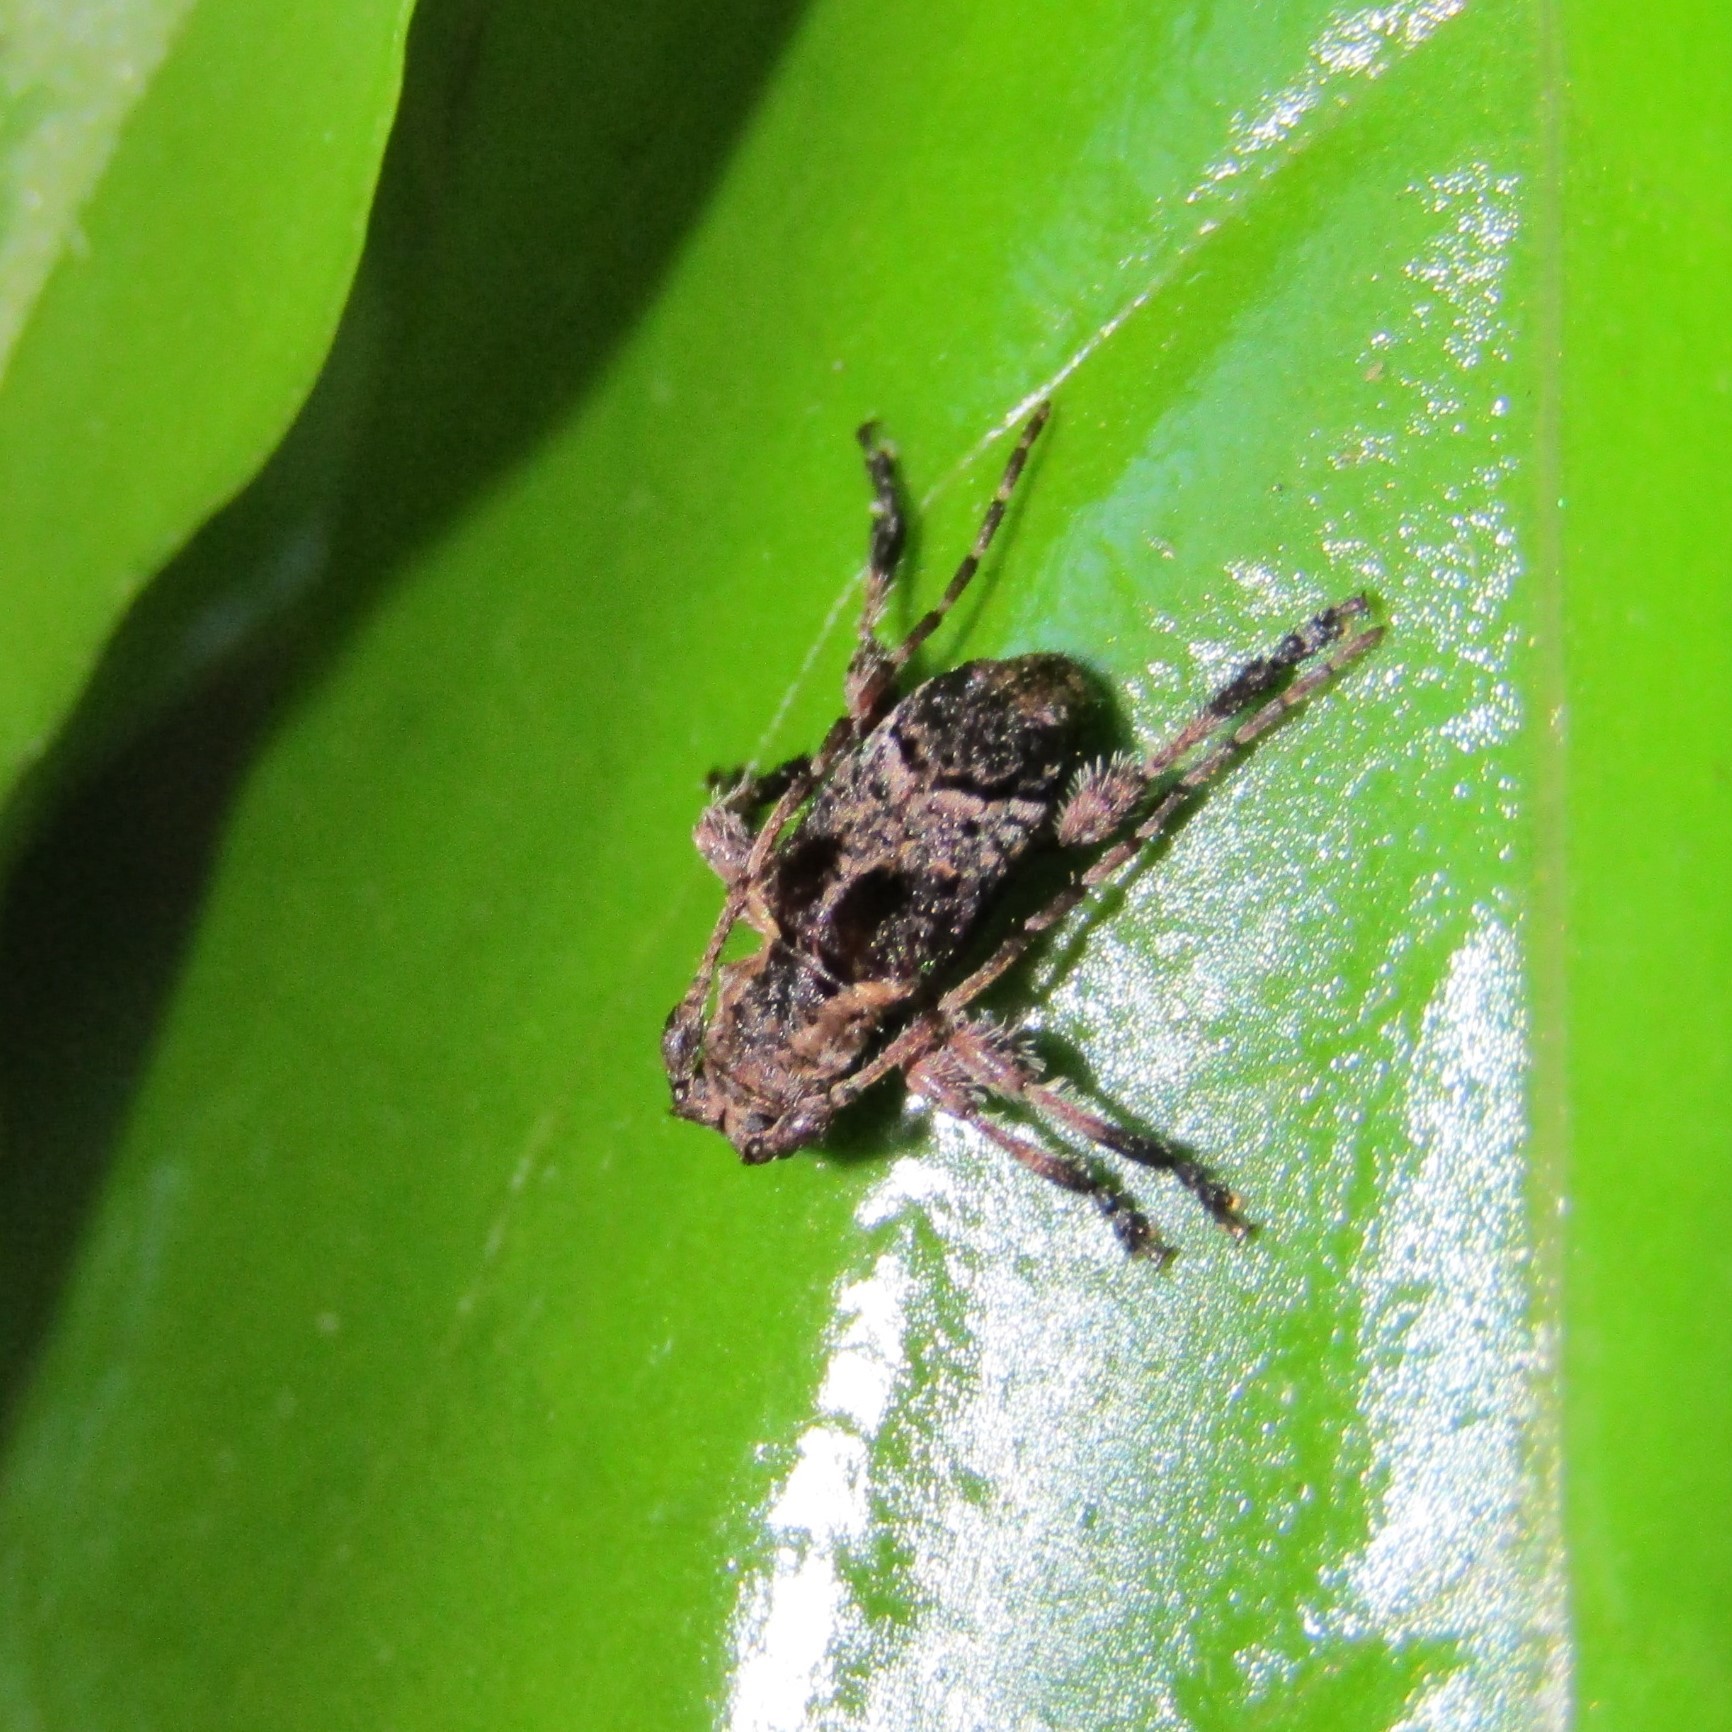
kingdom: Animalia
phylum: Arthropoda
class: Insecta
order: Coleoptera
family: Cerambycidae
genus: Hybolasius
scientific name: Hybolasius cristus
